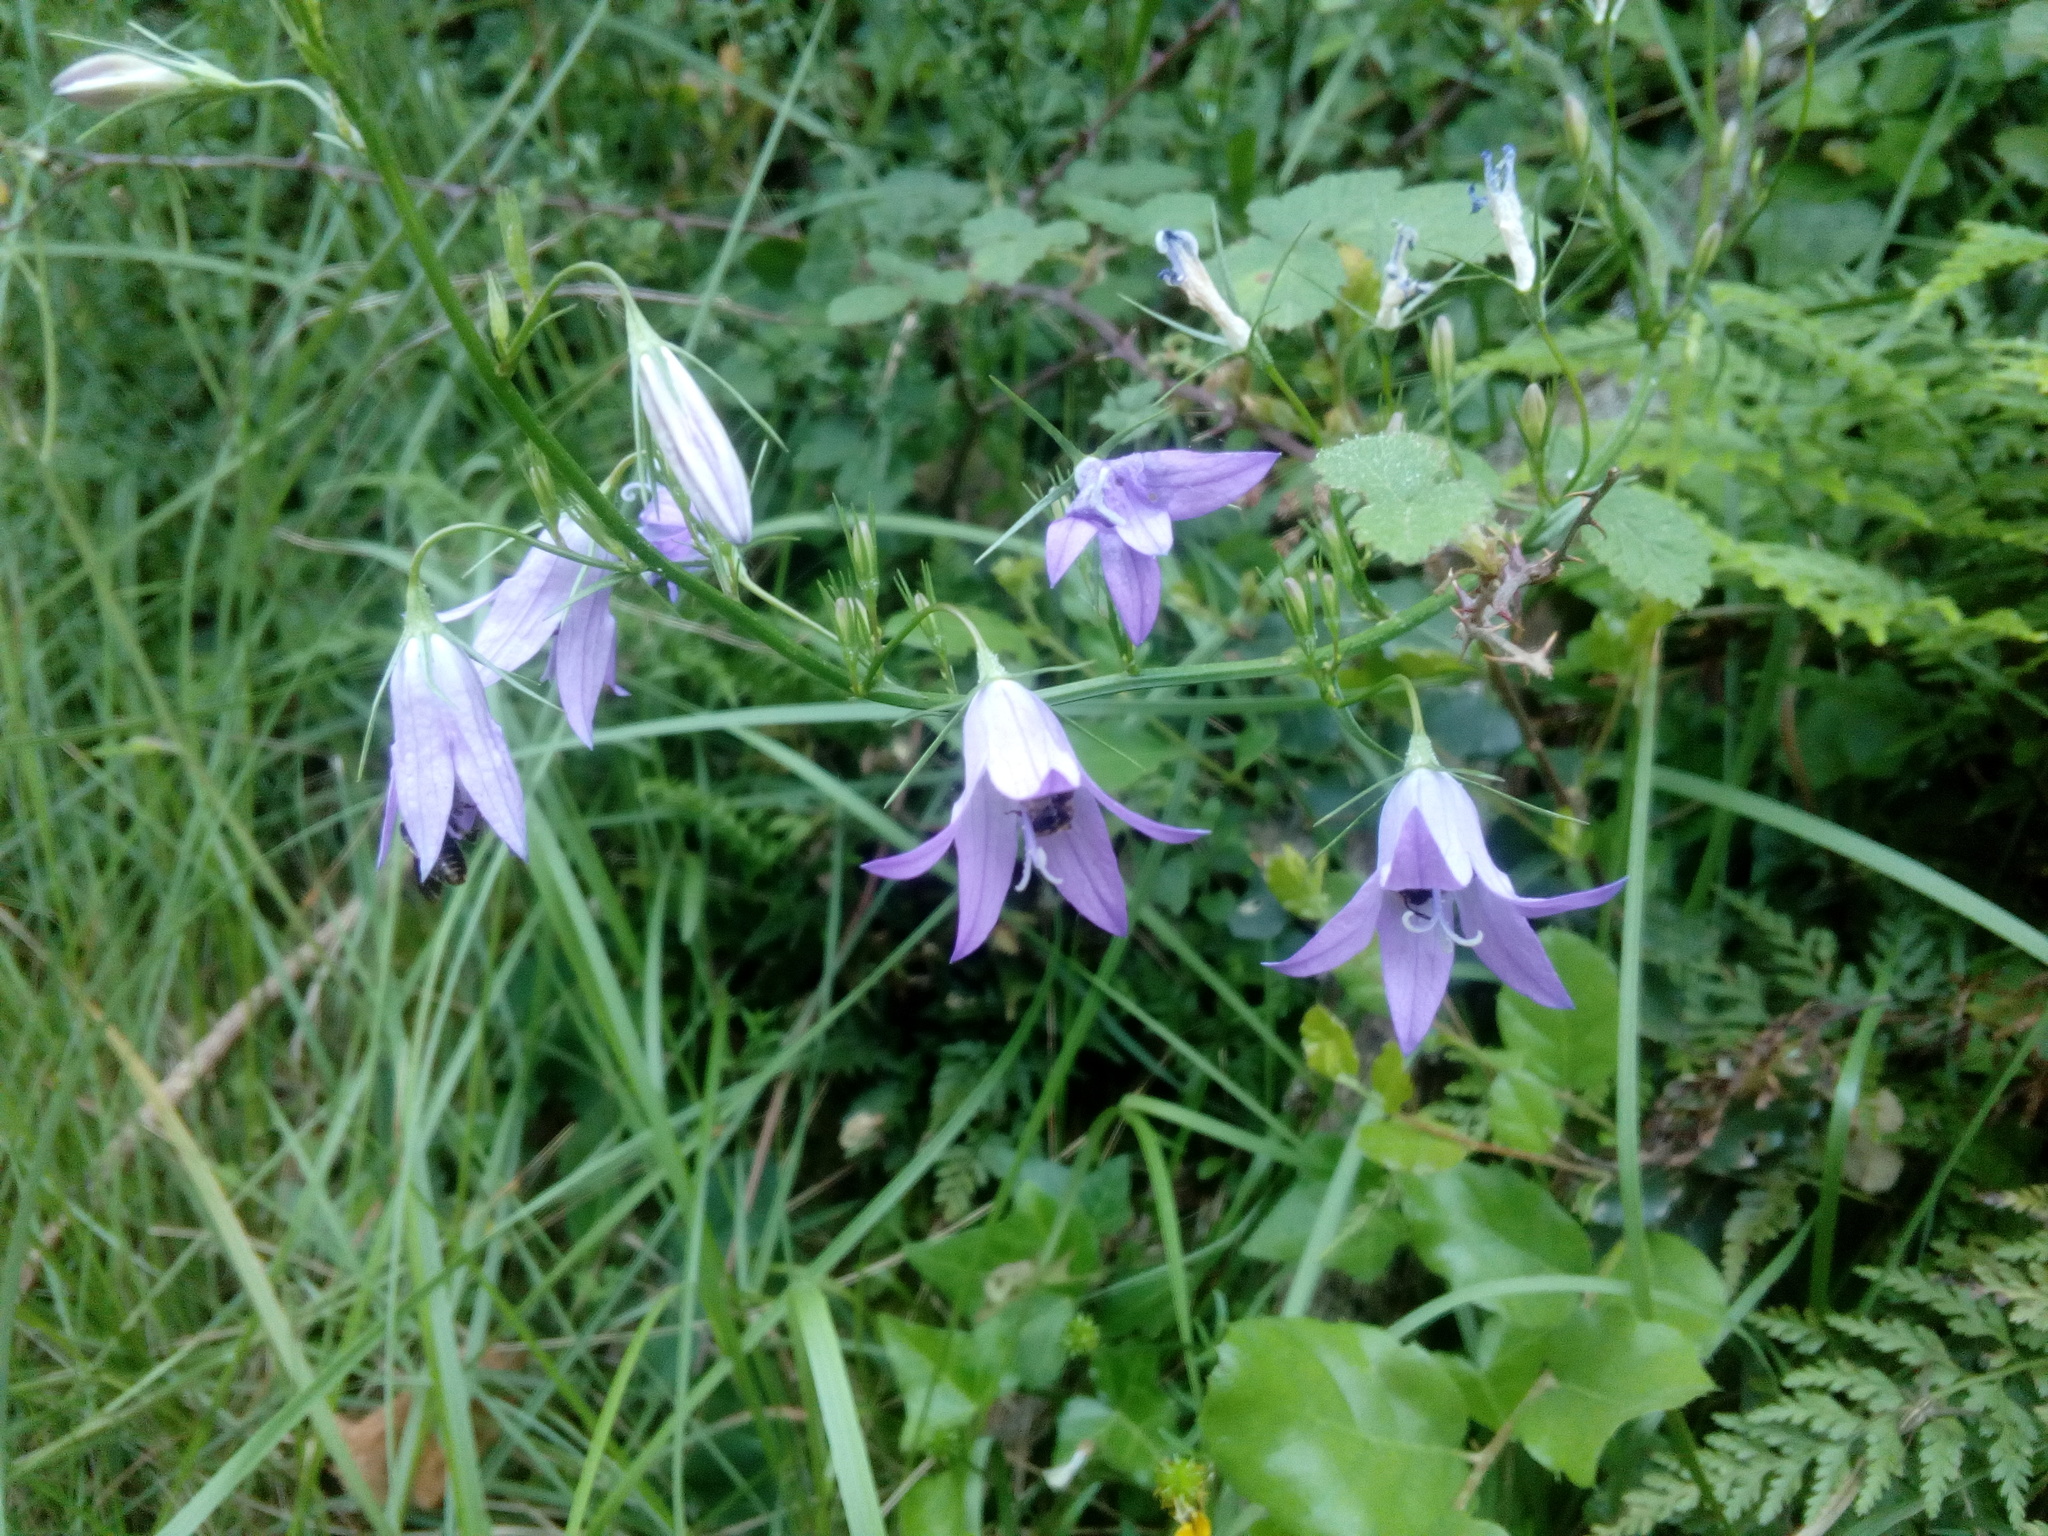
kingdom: Plantae
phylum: Tracheophyta
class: Magnoliopsida
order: Asterales
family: Campanulaceae
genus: Campanula
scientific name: Campanula rapunculus
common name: Rampion bellflower
